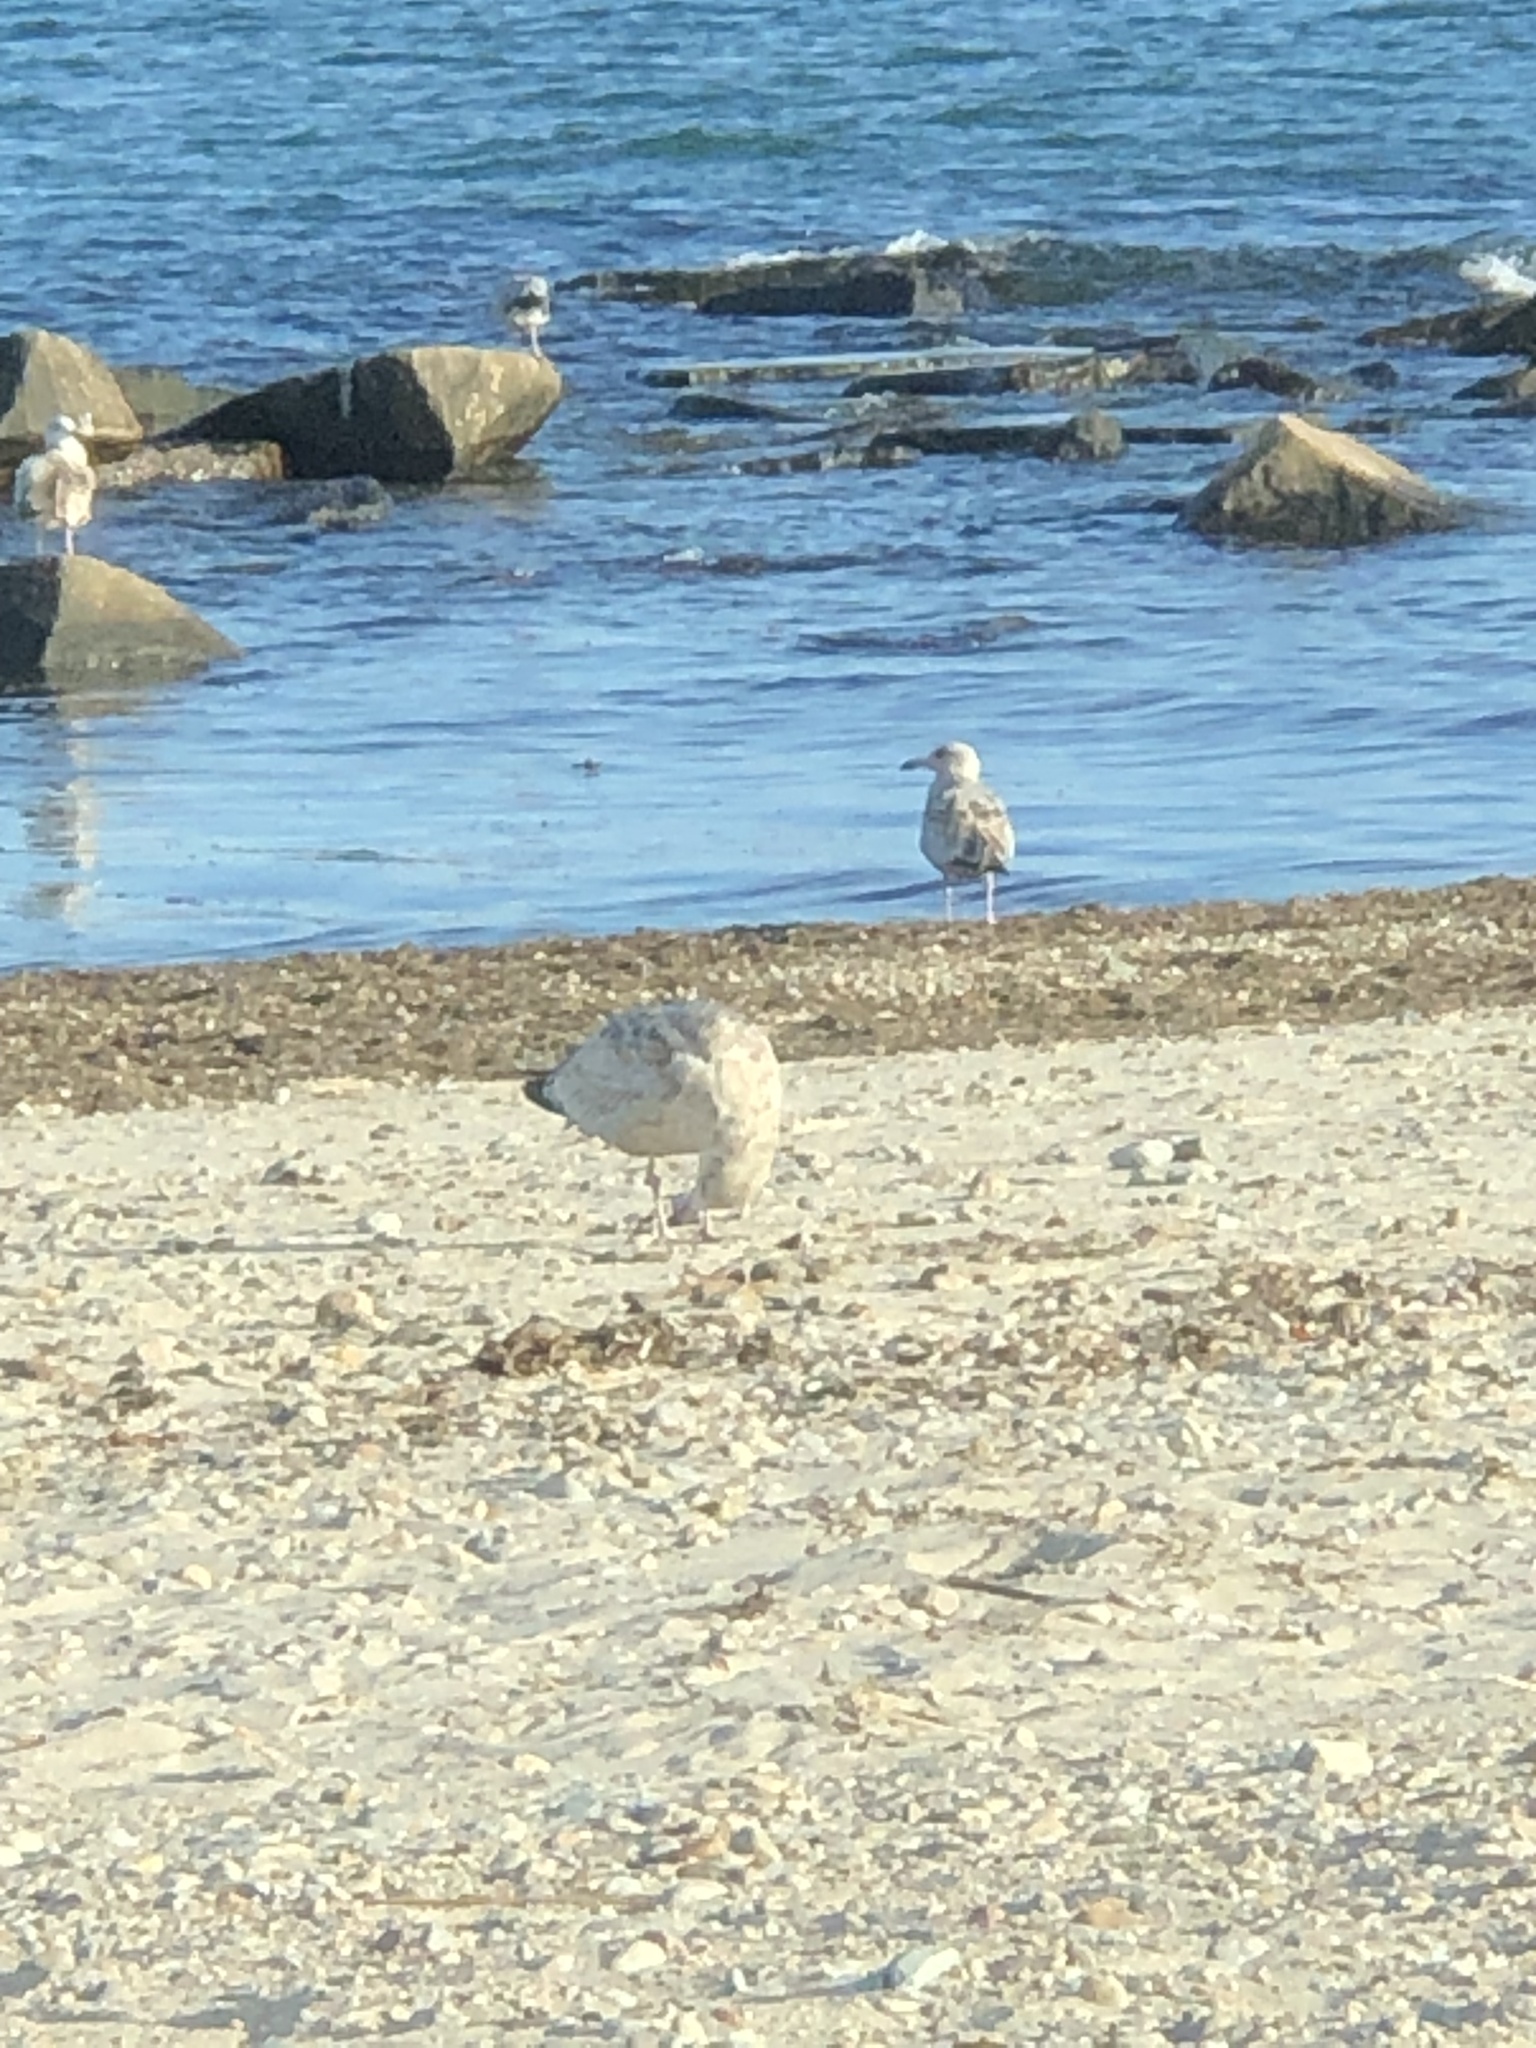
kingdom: Animalia
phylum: Chordata
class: Aves
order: Charadriiformes
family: Laridae
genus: Larus
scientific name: Larus argentatus
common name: Herring gull
